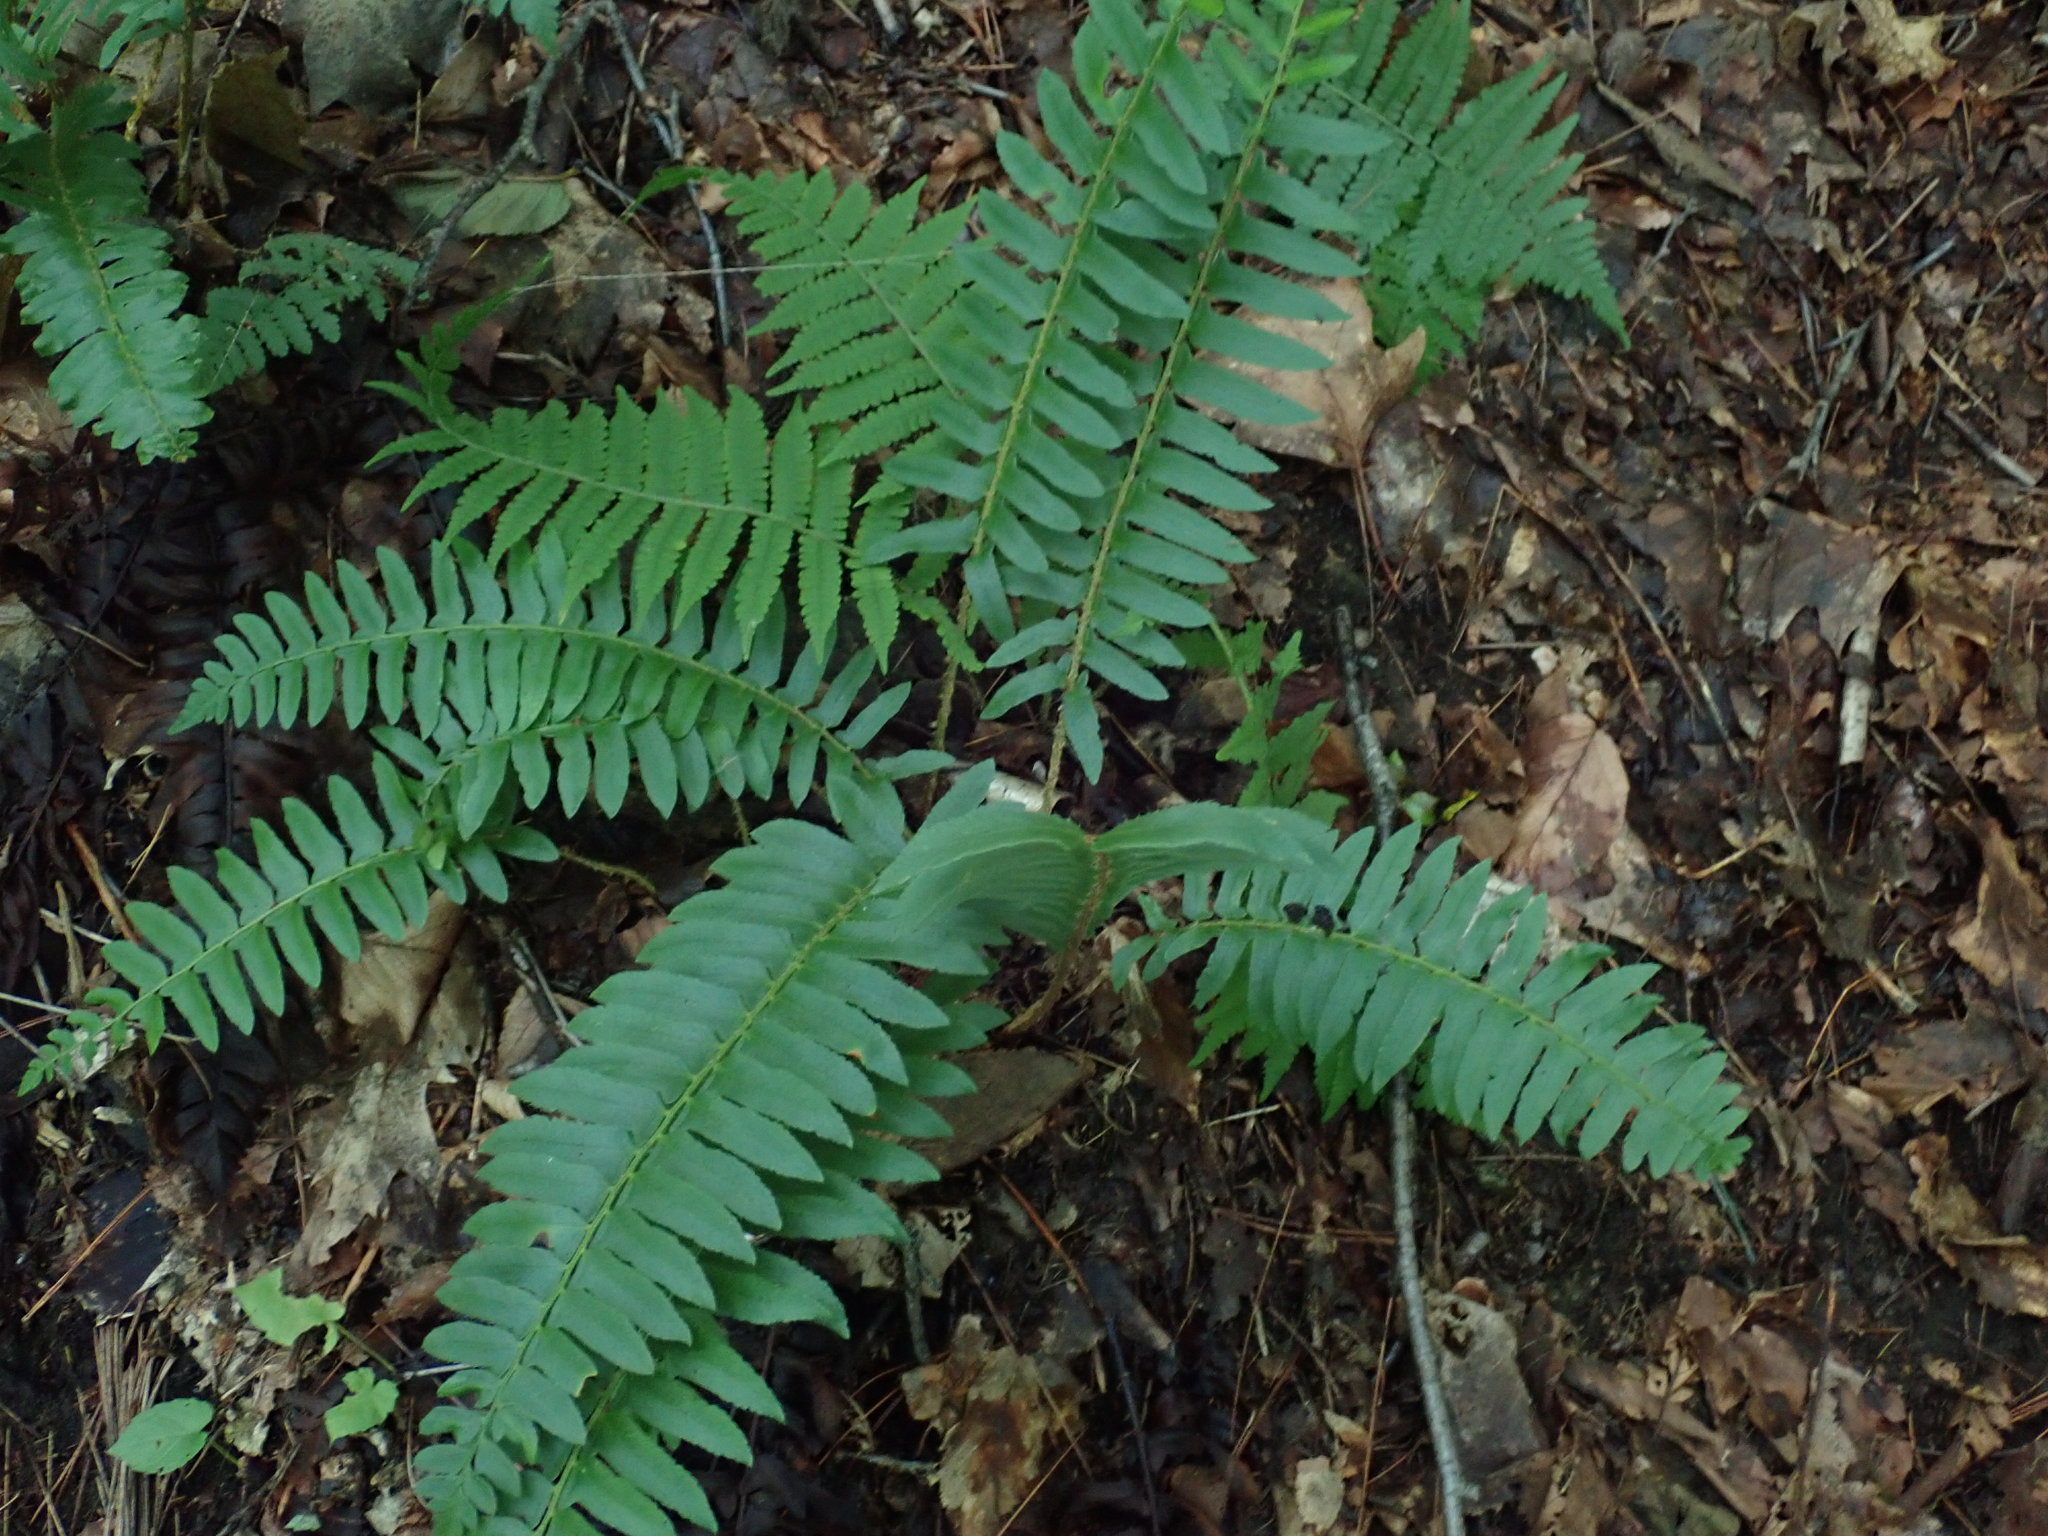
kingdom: Plantae
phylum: Tracheophyta
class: Polypodiopsida
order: Polypodiales
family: Dryopteridaceae
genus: Polystichum
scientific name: Polystichum acrostichoides
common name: Christmas fern
